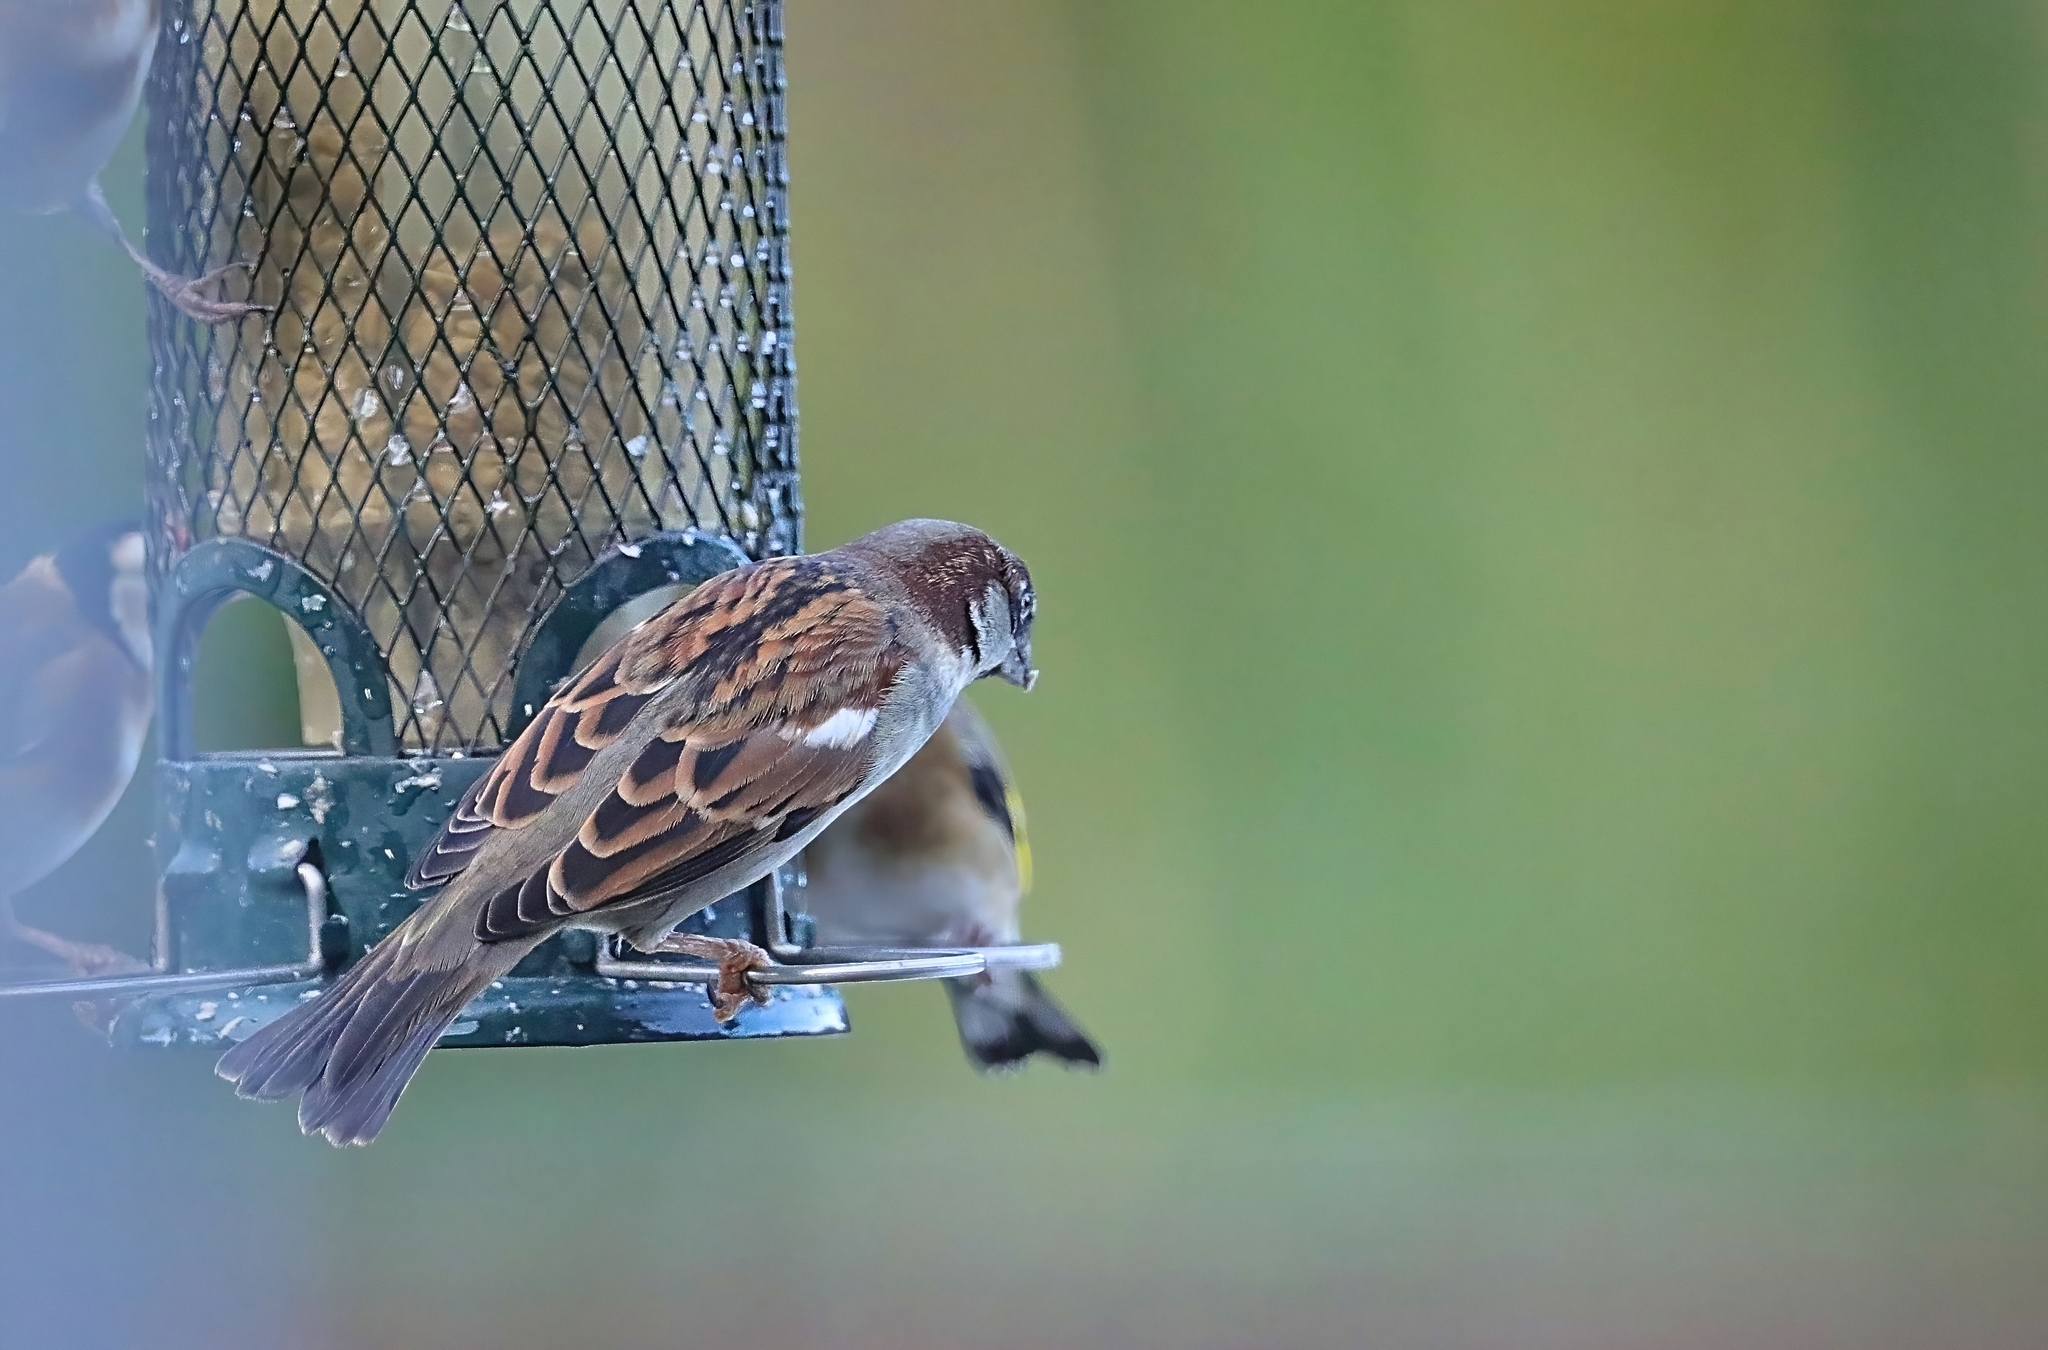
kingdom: Animalia
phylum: Chordata
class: Aves
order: Passeriformes
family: Passeridae
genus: Passer
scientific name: Passer domesticus
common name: House sparrow
